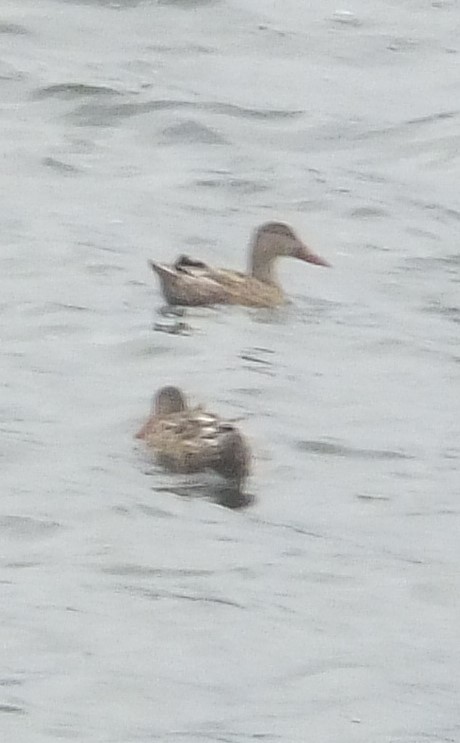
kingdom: Animalia
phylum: Chordata
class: Aves
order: Anseriformes
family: Anatidae
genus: Spatula
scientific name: Spatula clypeata
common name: Northern shoveler
